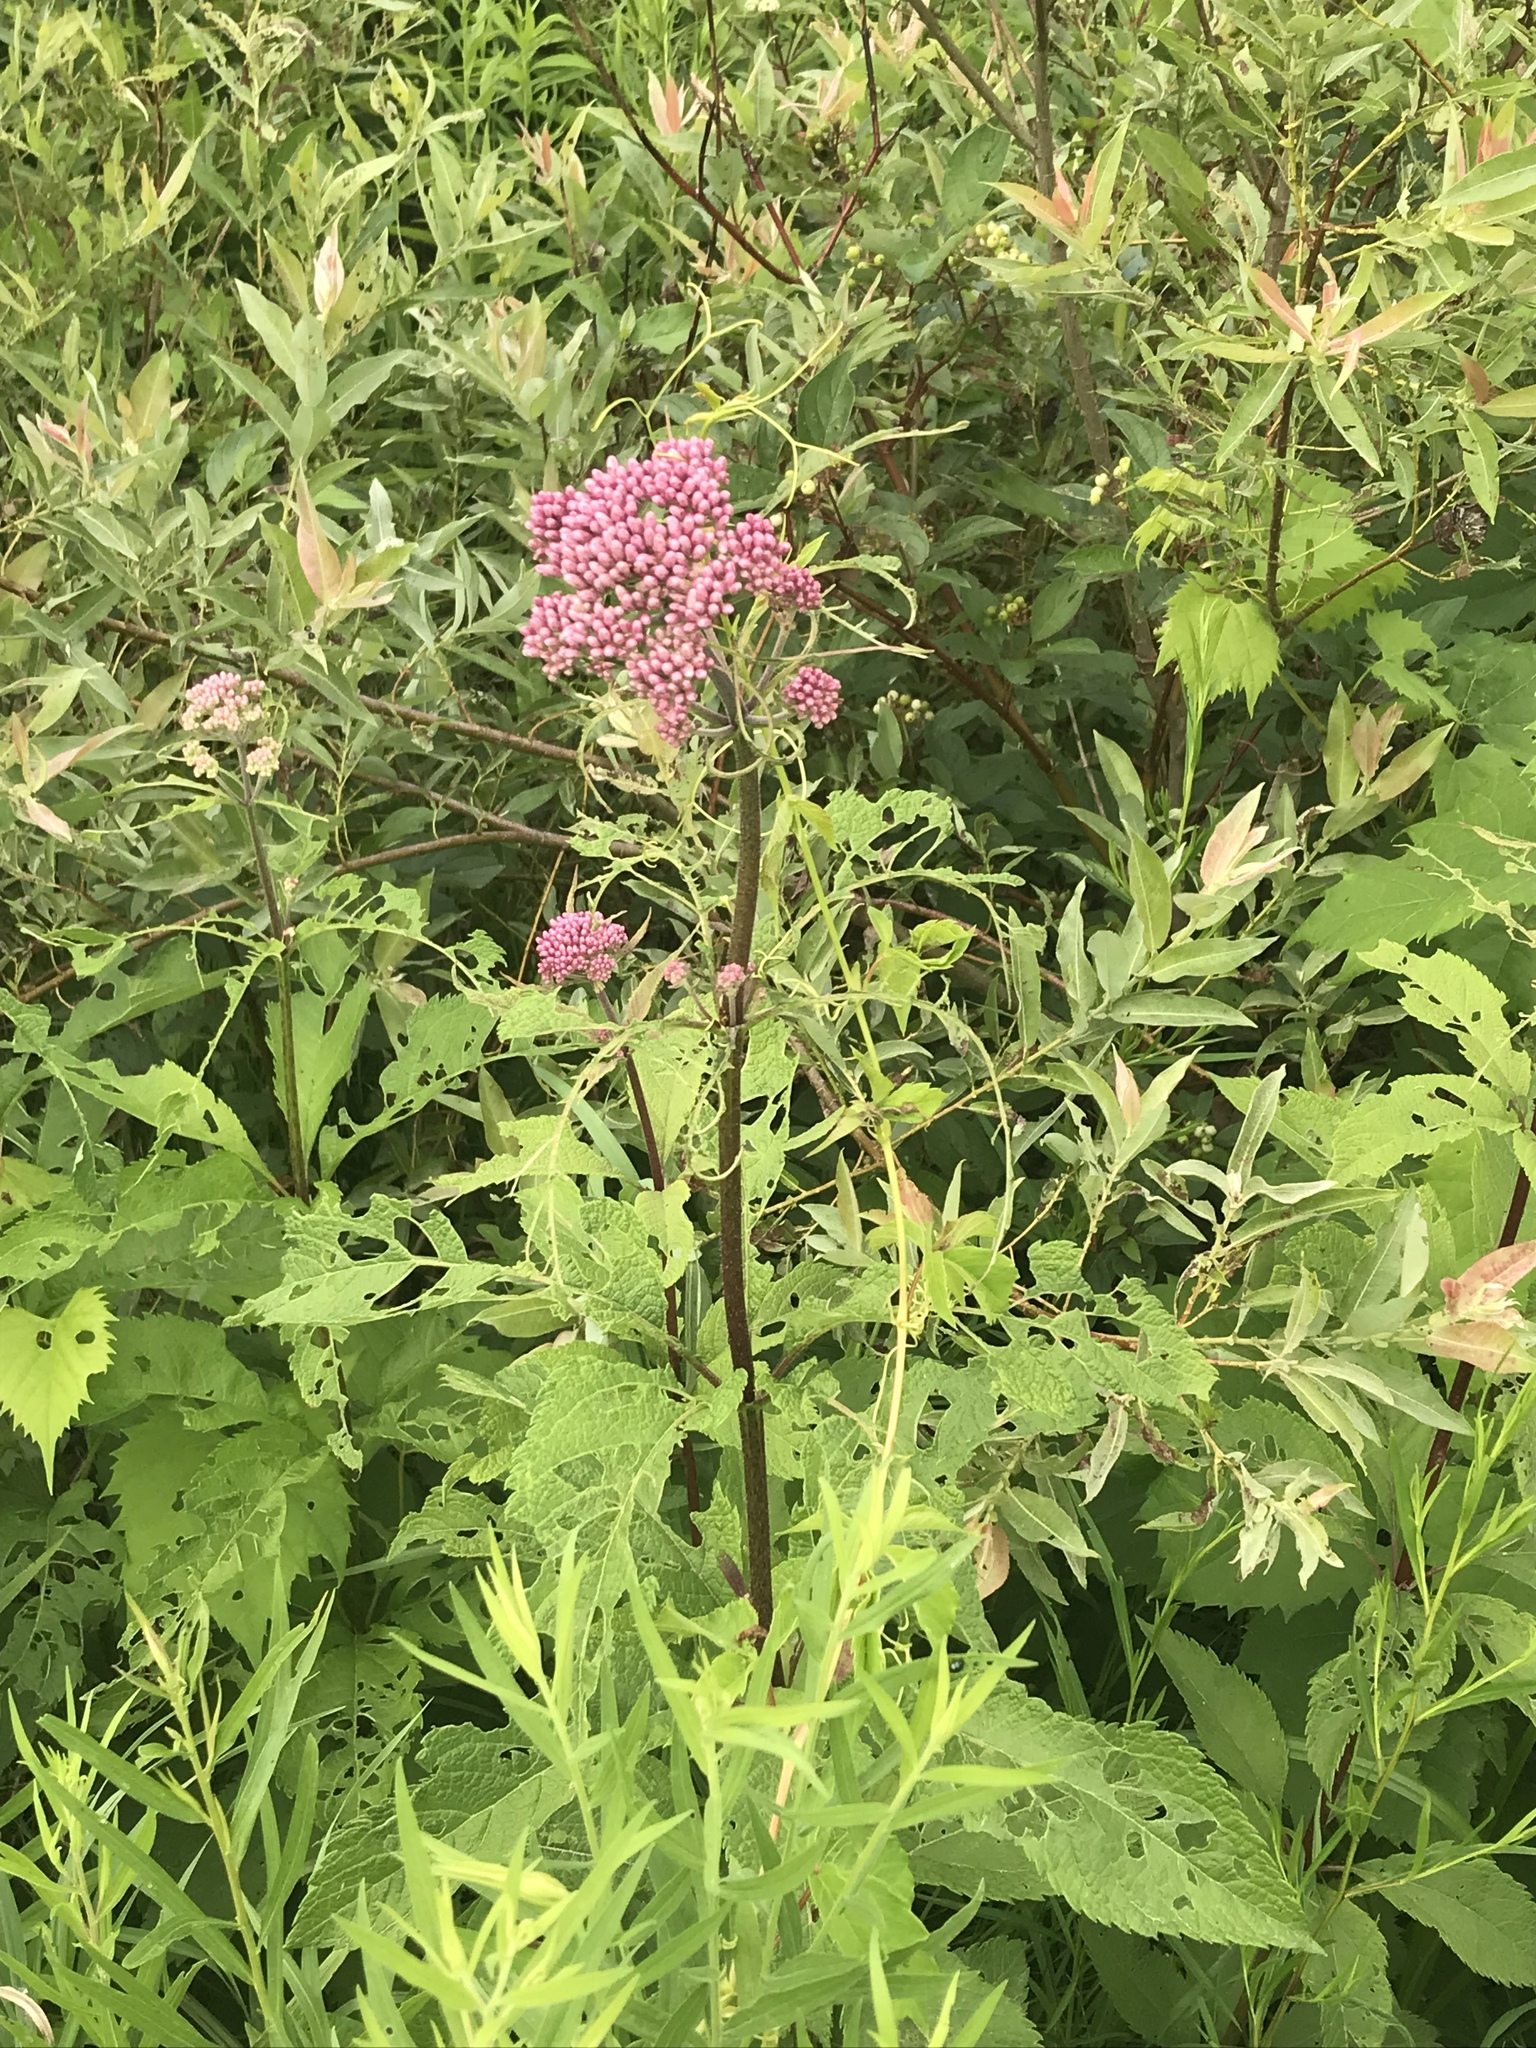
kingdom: Plantae
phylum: Tracheophyta
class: Magnoliopsida
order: Asterales
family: Asteraceae
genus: Eutrochium
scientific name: Eutrochium maculatum
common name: Spotted joe pye weed
